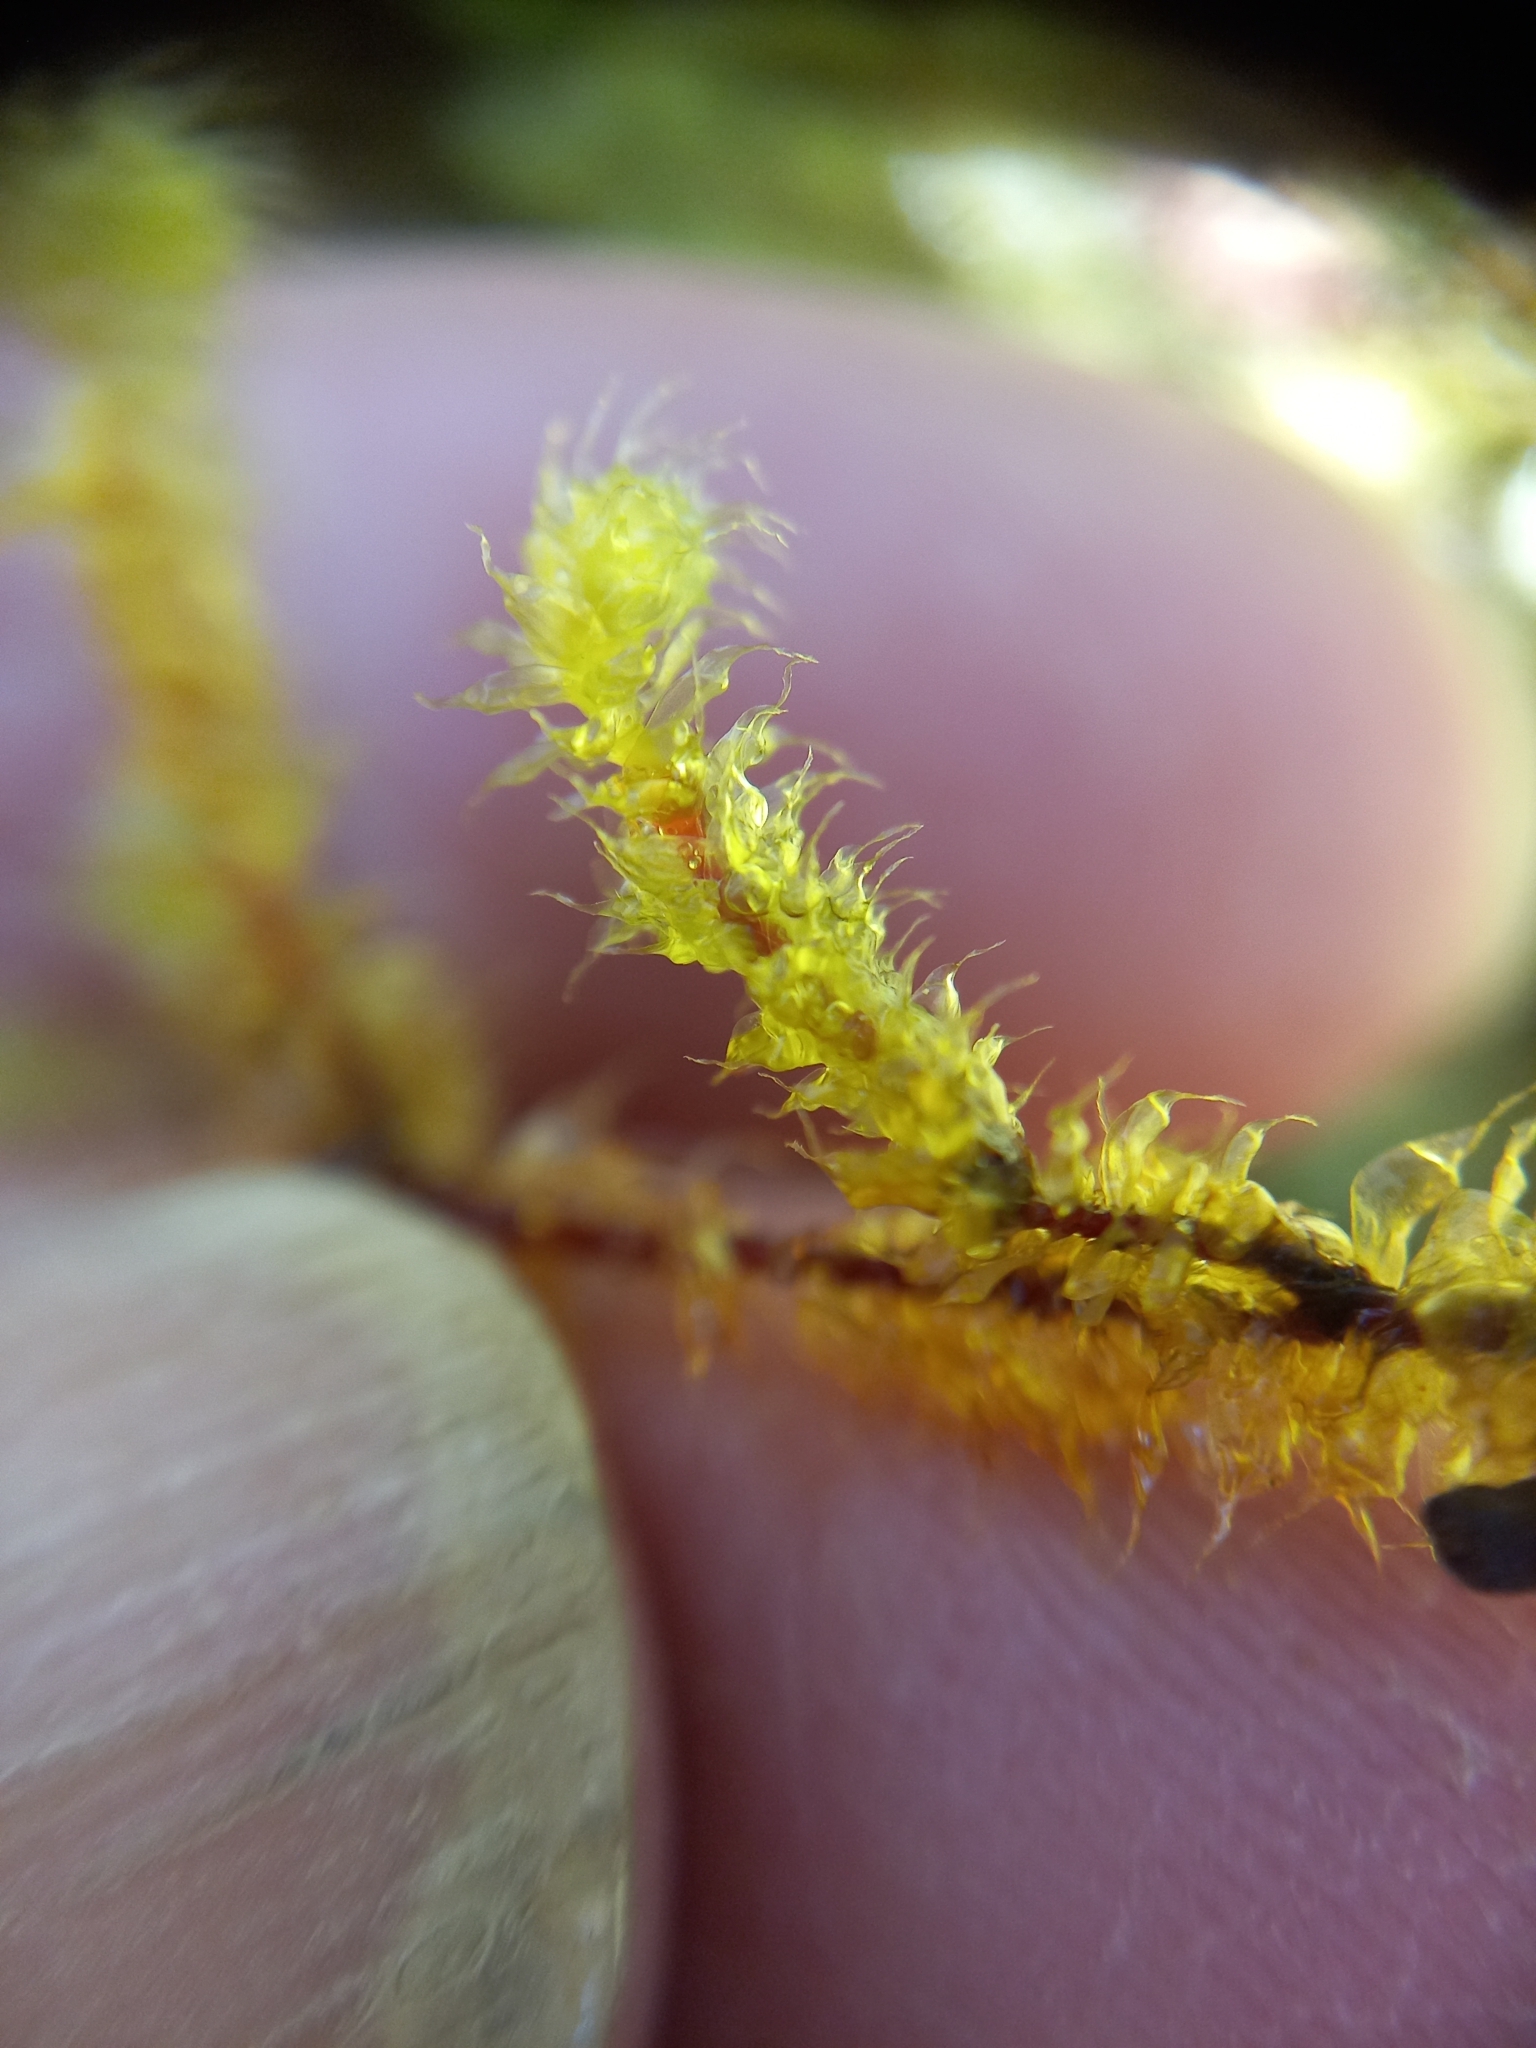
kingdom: Plantae
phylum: Bryophyta
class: Bryopsida
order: Ptychomniales
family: Ptychomniaceae
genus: Ptychomnion
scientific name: Ptychomnion aciculare
